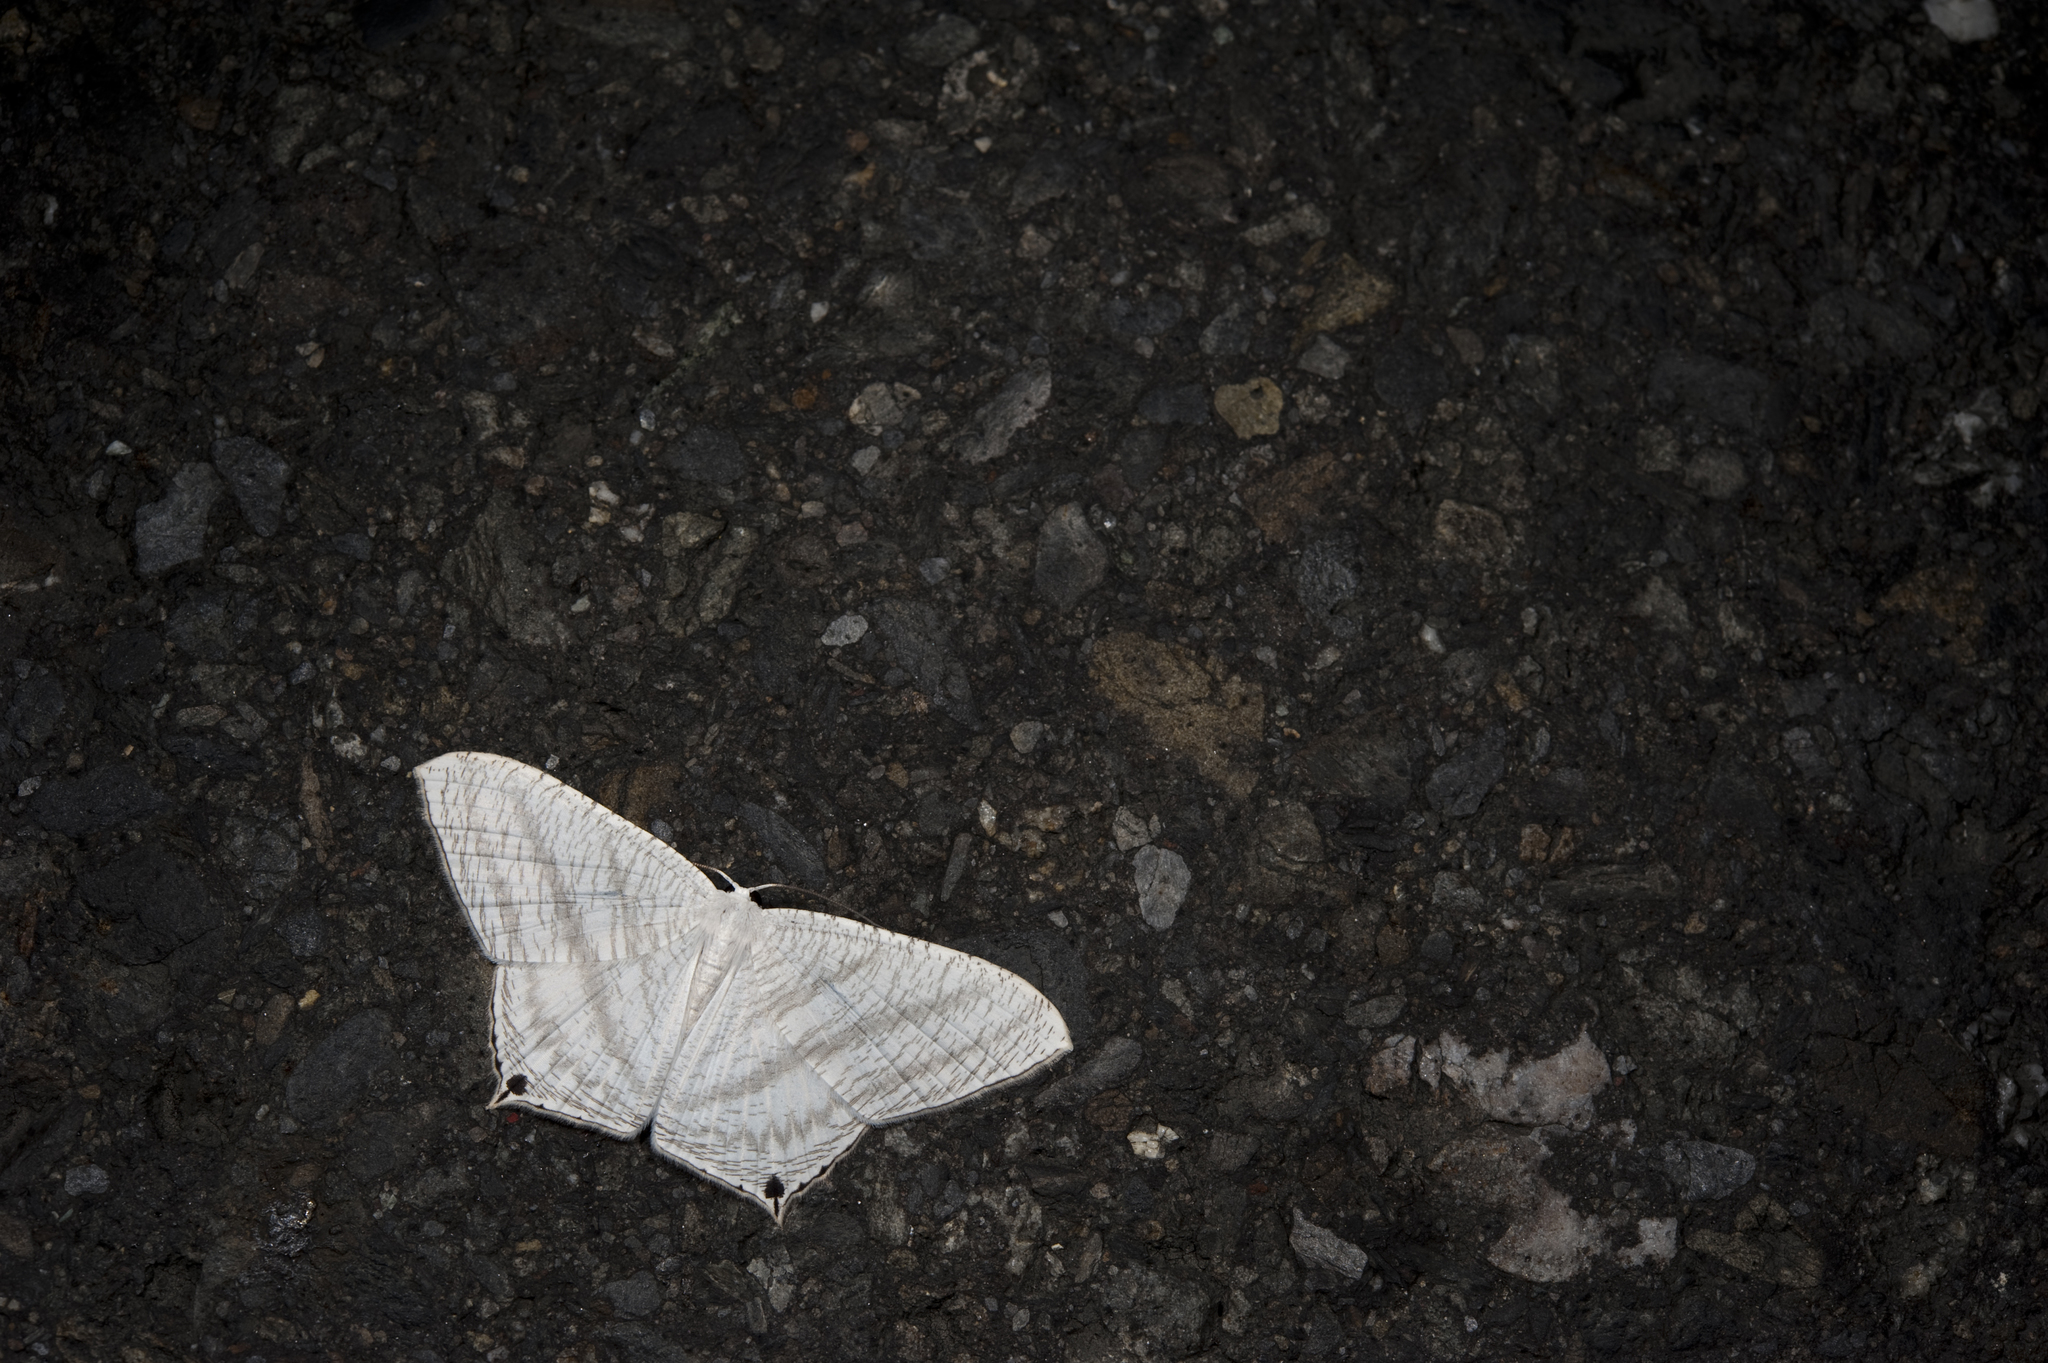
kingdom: Animalia
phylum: Arthropoda
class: Insecta
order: Lepidoptera
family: Uraniidae
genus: Micronia
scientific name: Micronia aculeata
